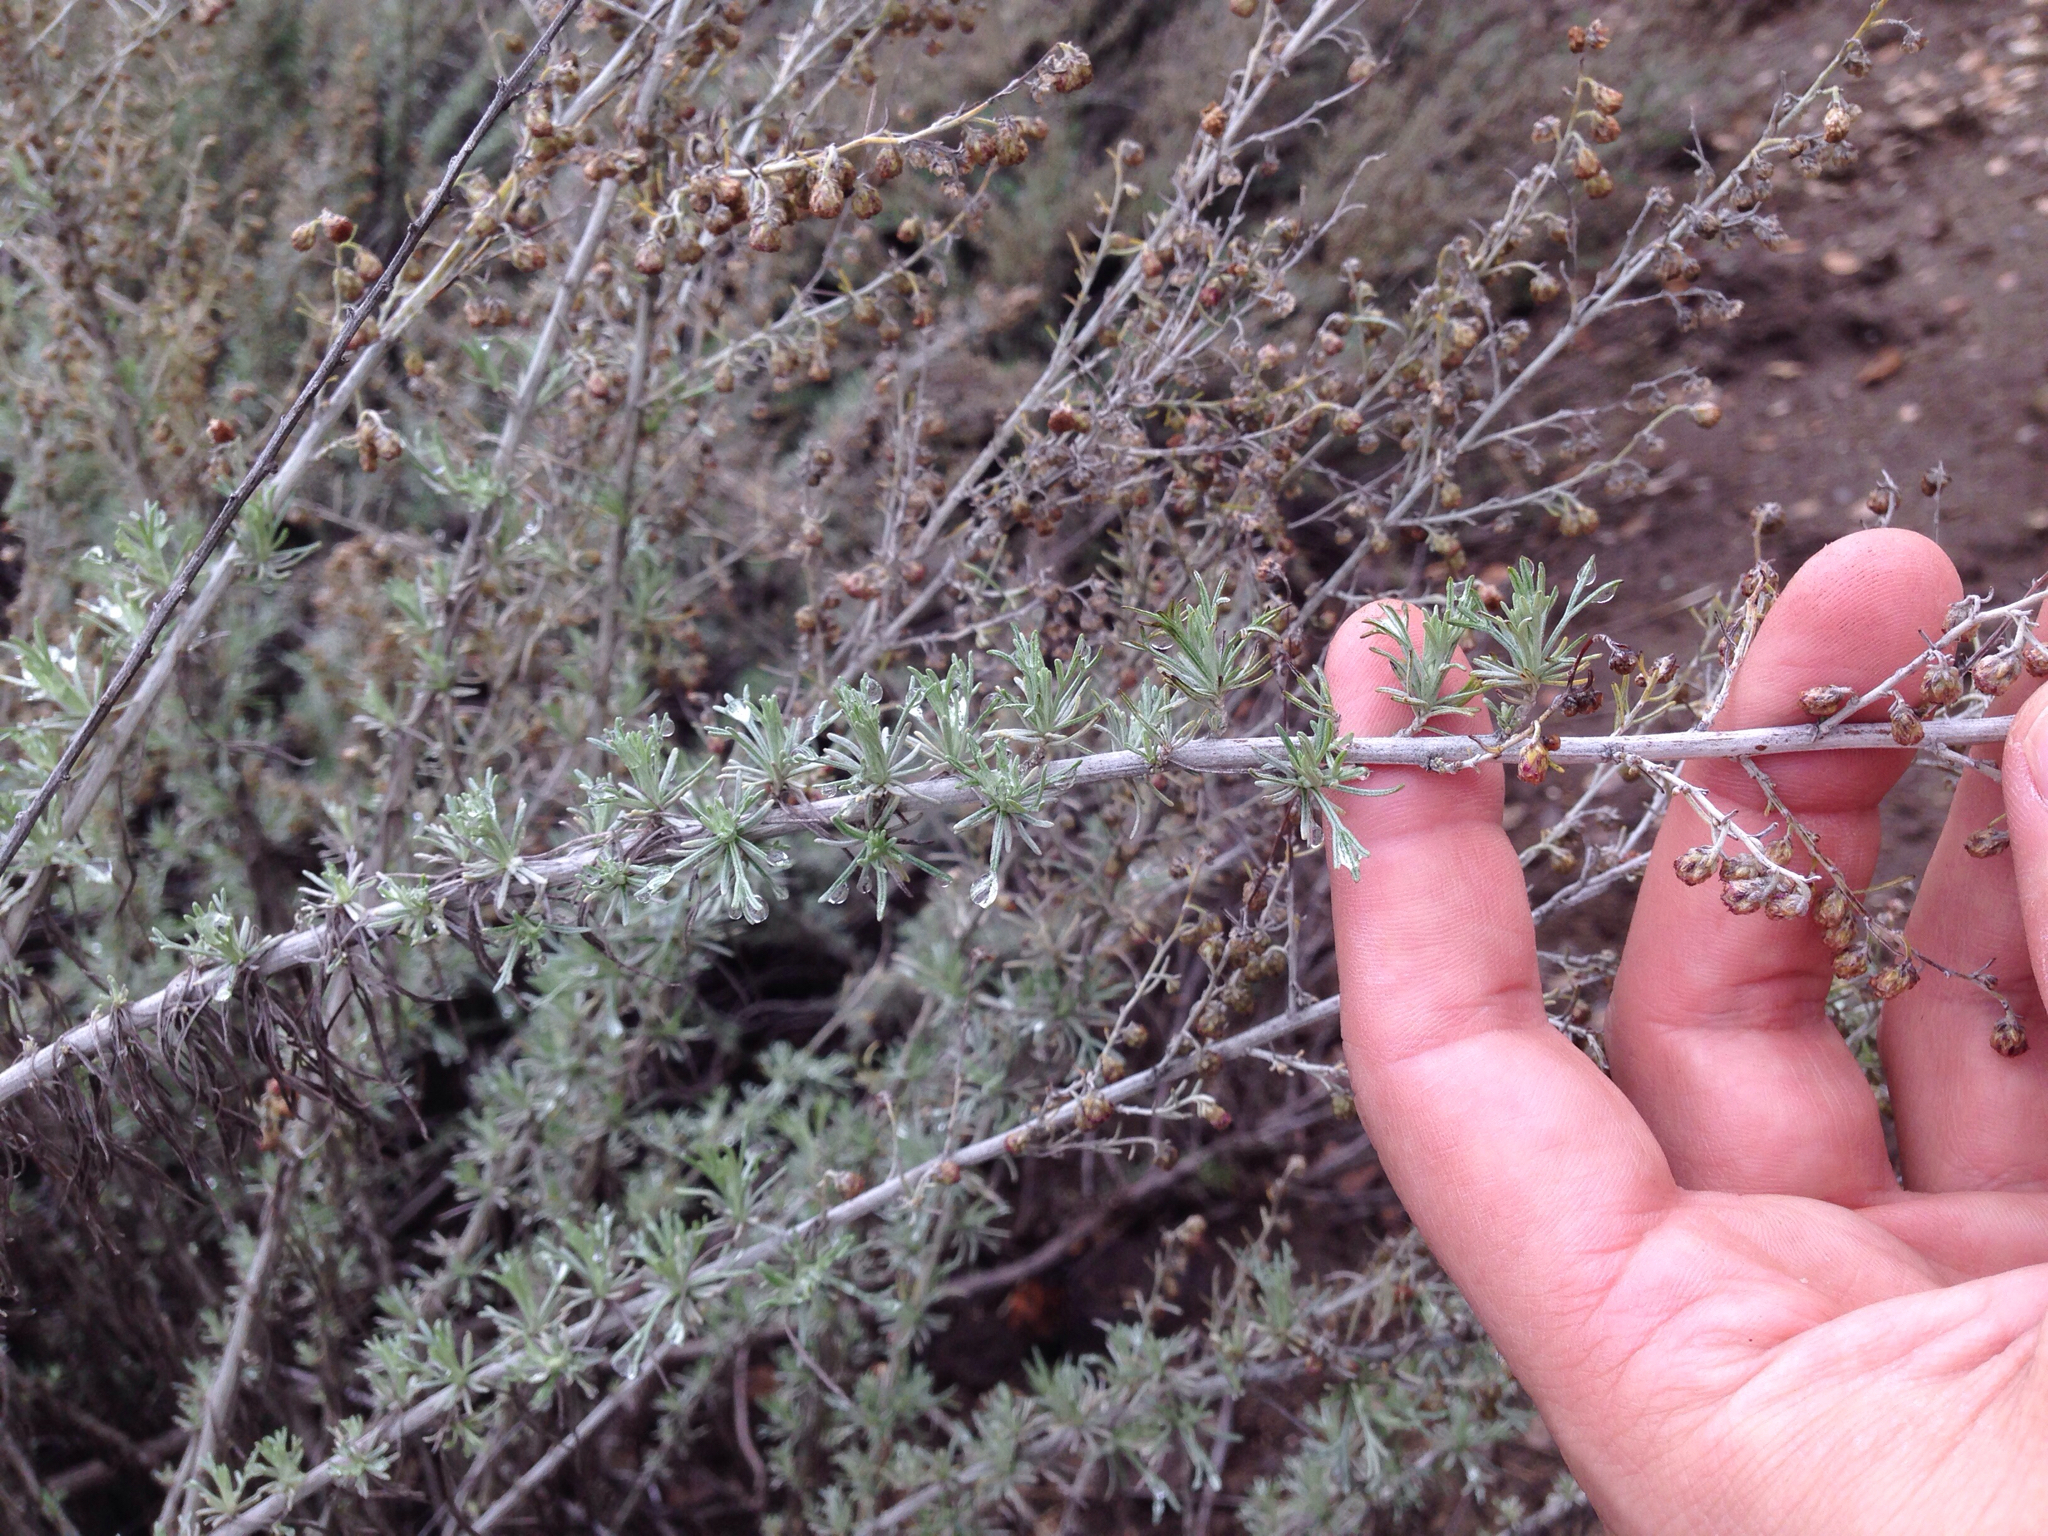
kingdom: Plantae
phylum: Tracheophyta
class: Magnoliopsida
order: Asterales
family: Asteraceae
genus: Artemisia
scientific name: Artemisia californica
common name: California sagebrush
